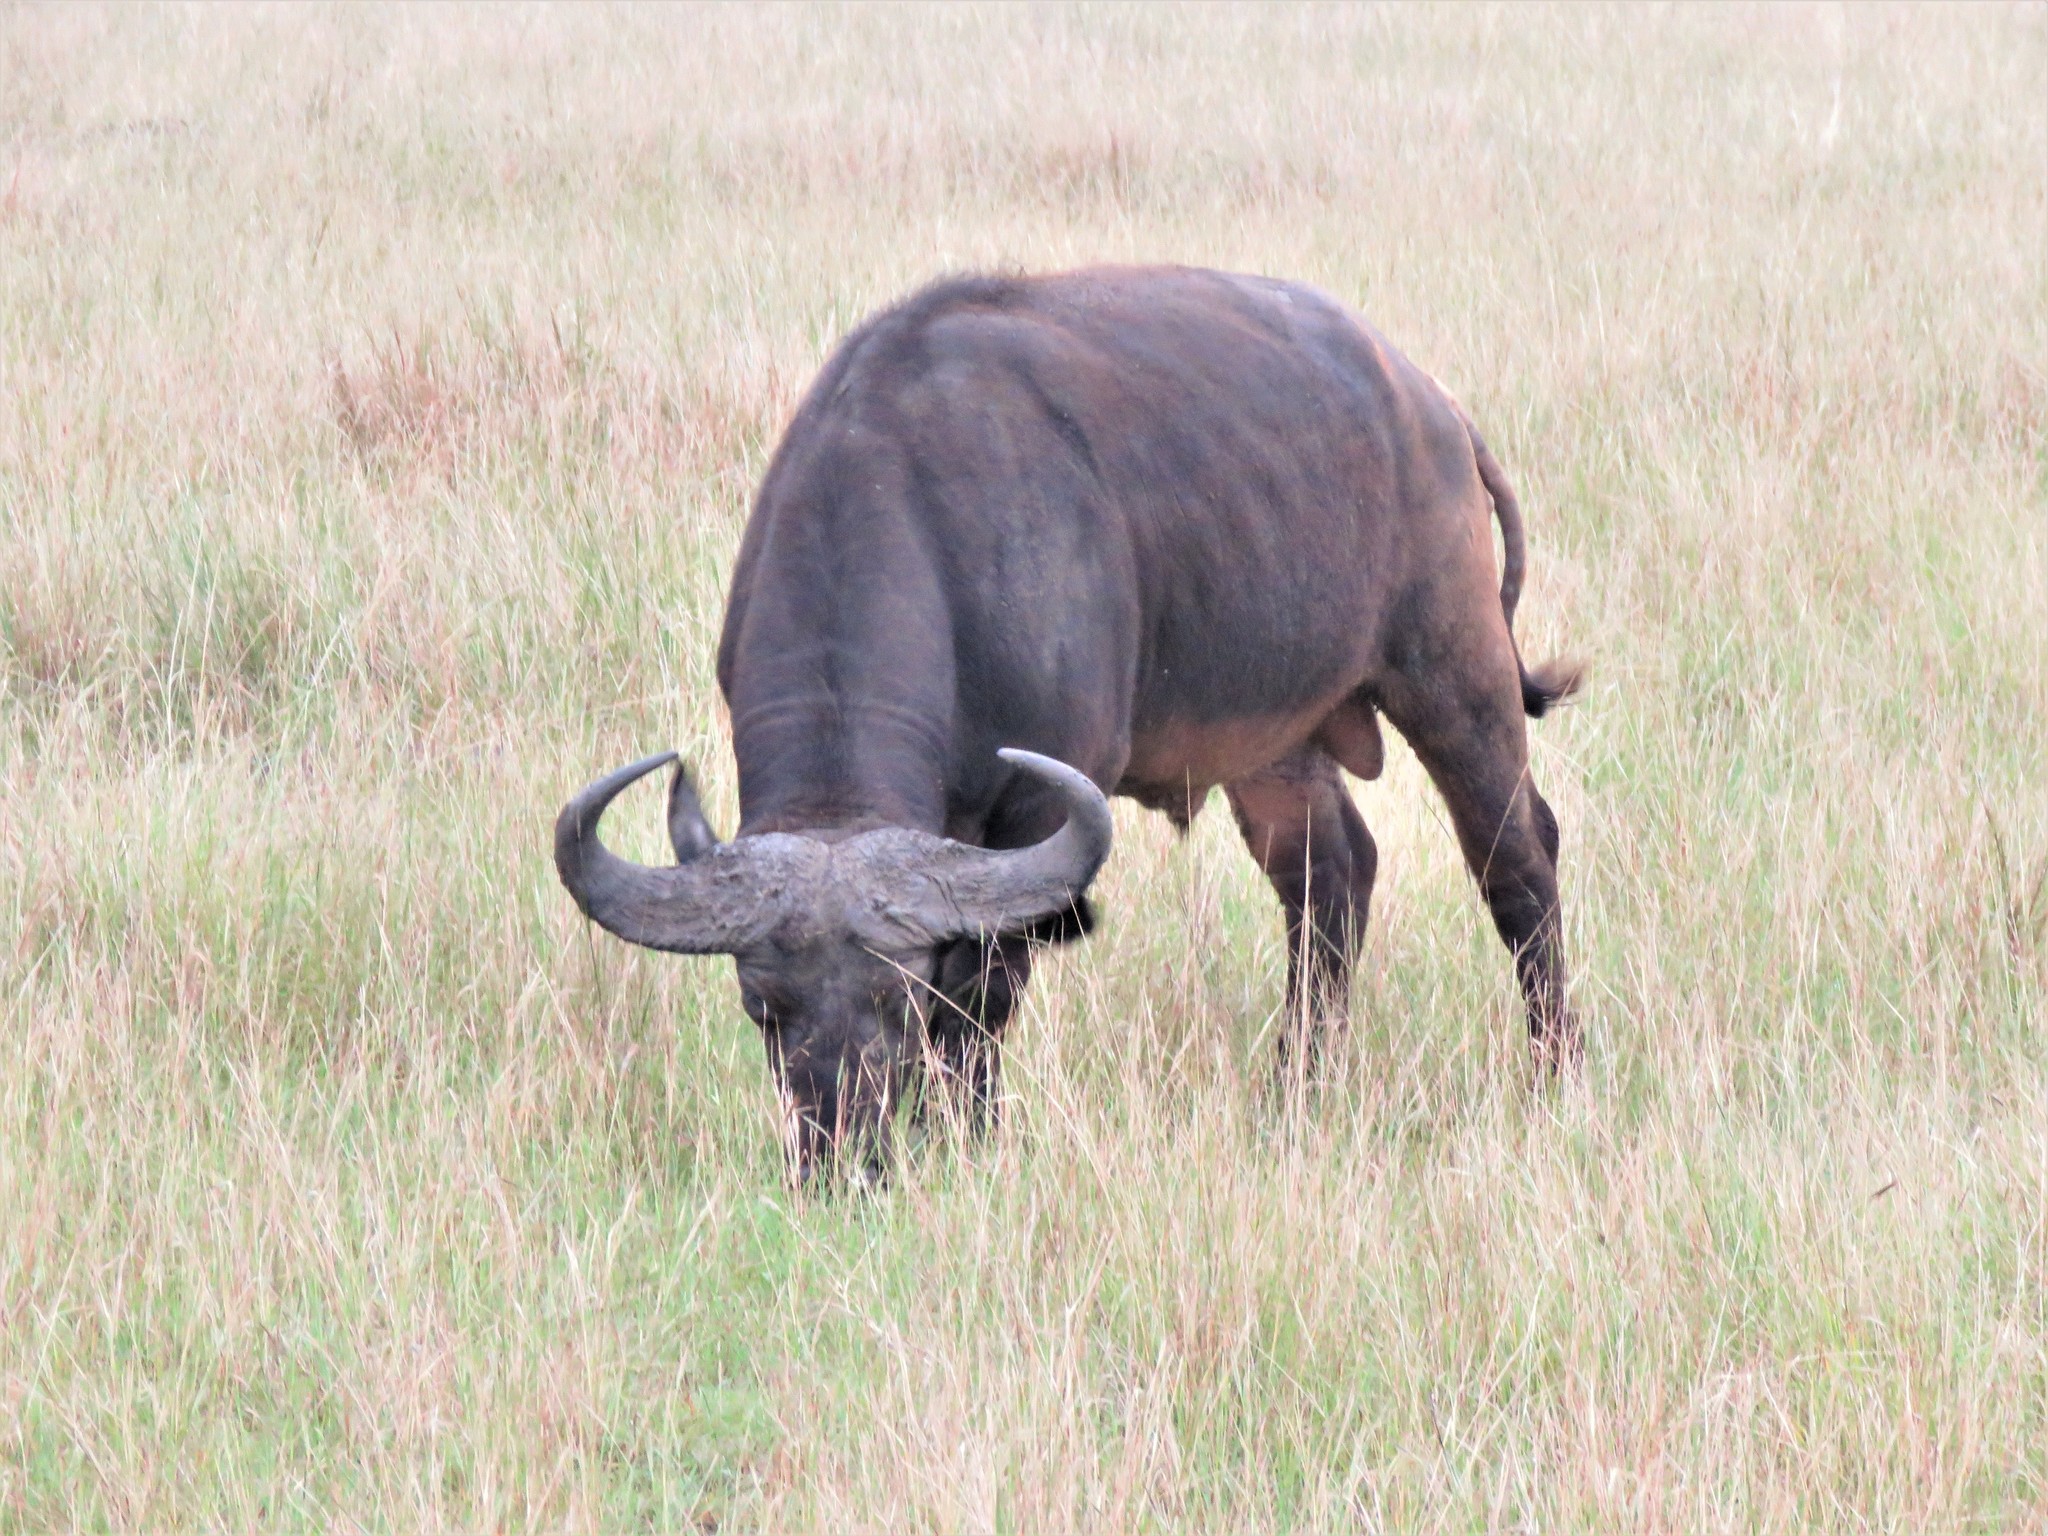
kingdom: Animalia
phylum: Chordata
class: Mammalia
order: Artiodactyla
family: Bovidae
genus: Syncerus
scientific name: Syncerus caffer
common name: African buffalo
